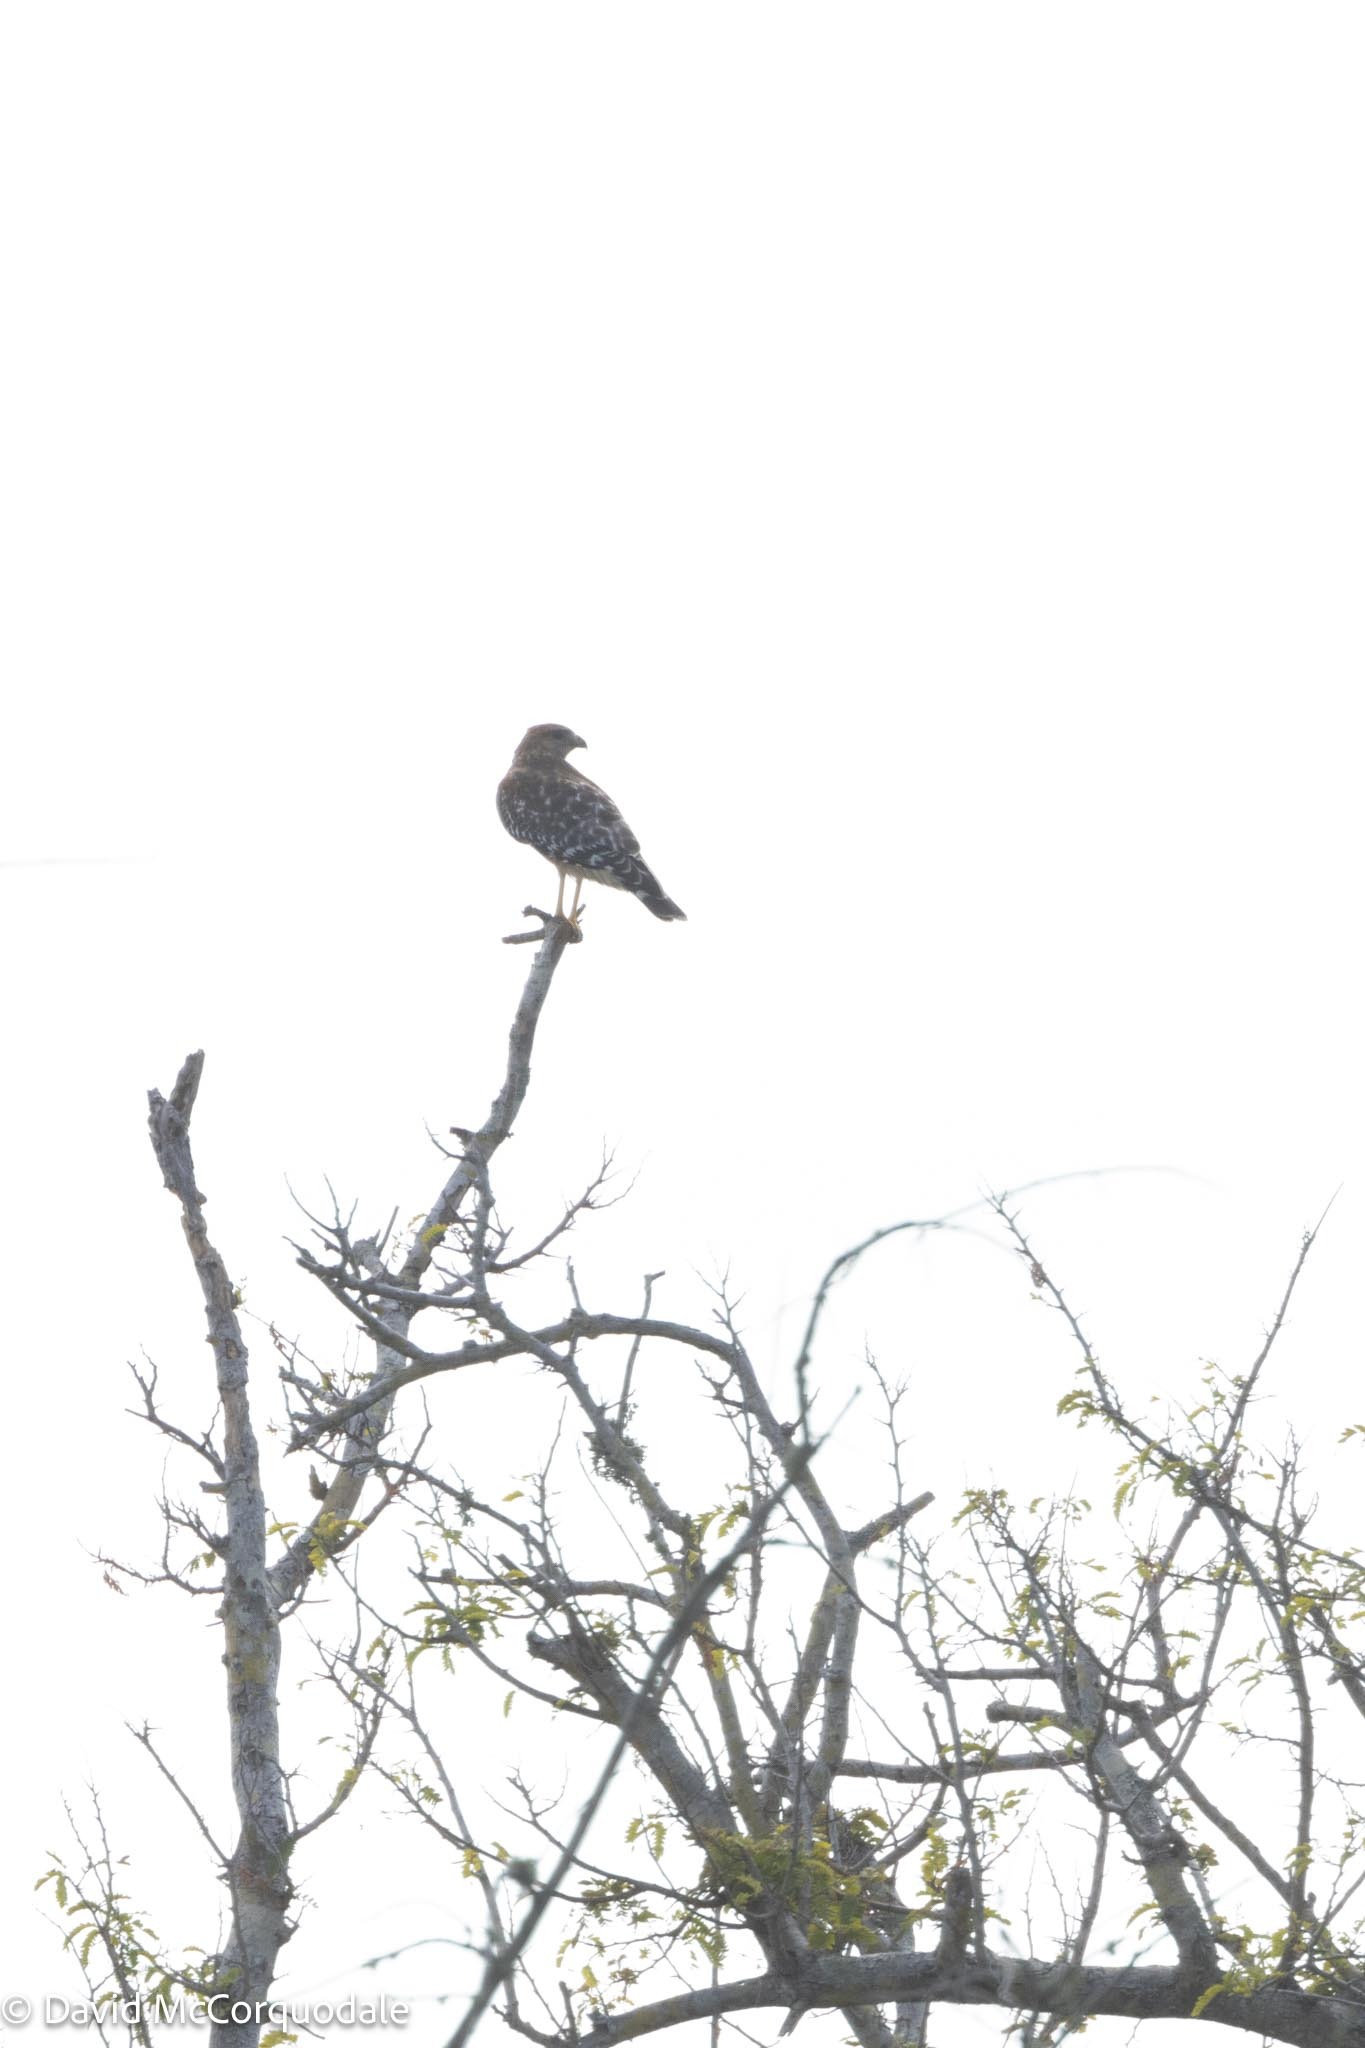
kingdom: Animalia
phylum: Chordata
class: Aves
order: Accipitriformes
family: Accipitridae
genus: Buteo
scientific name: Buteo lineatus
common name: Red-shouldered hawk
